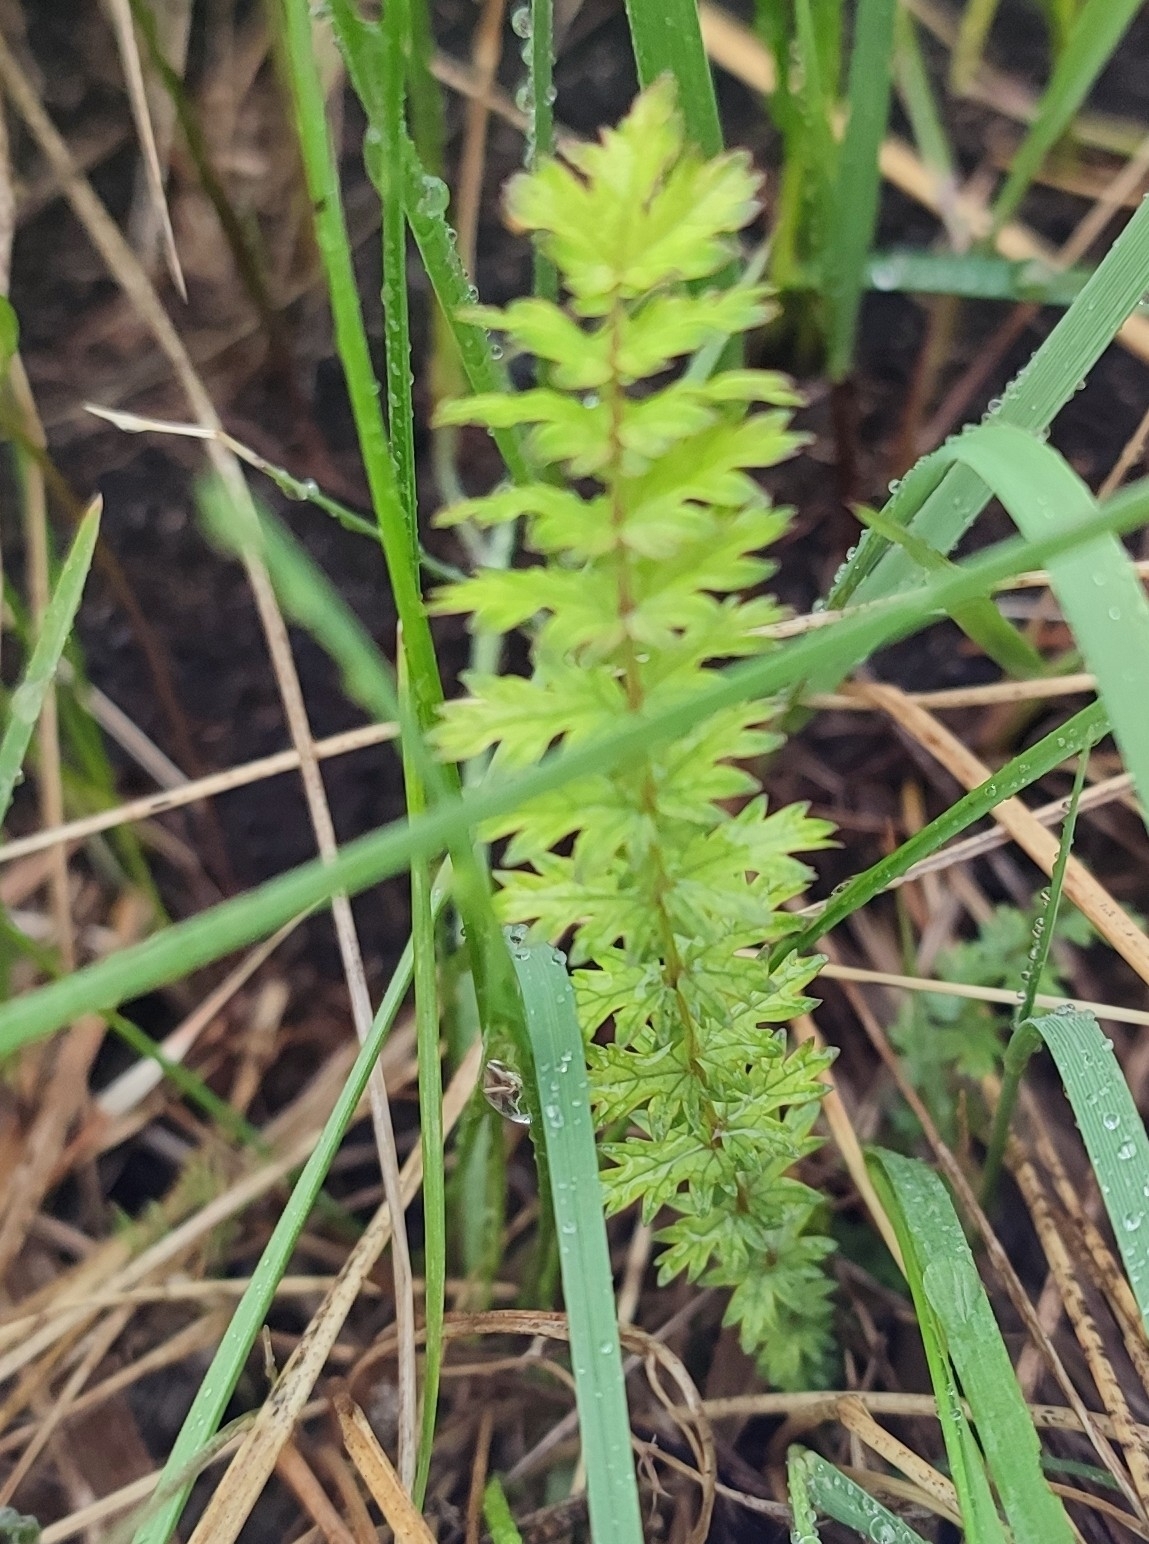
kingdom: Plantae
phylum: Tracheophyta
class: Magnoliopsida
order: Rosales
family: Rosaceae
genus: Filipendula
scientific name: Filipendula vulgaris
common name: Dropwort
